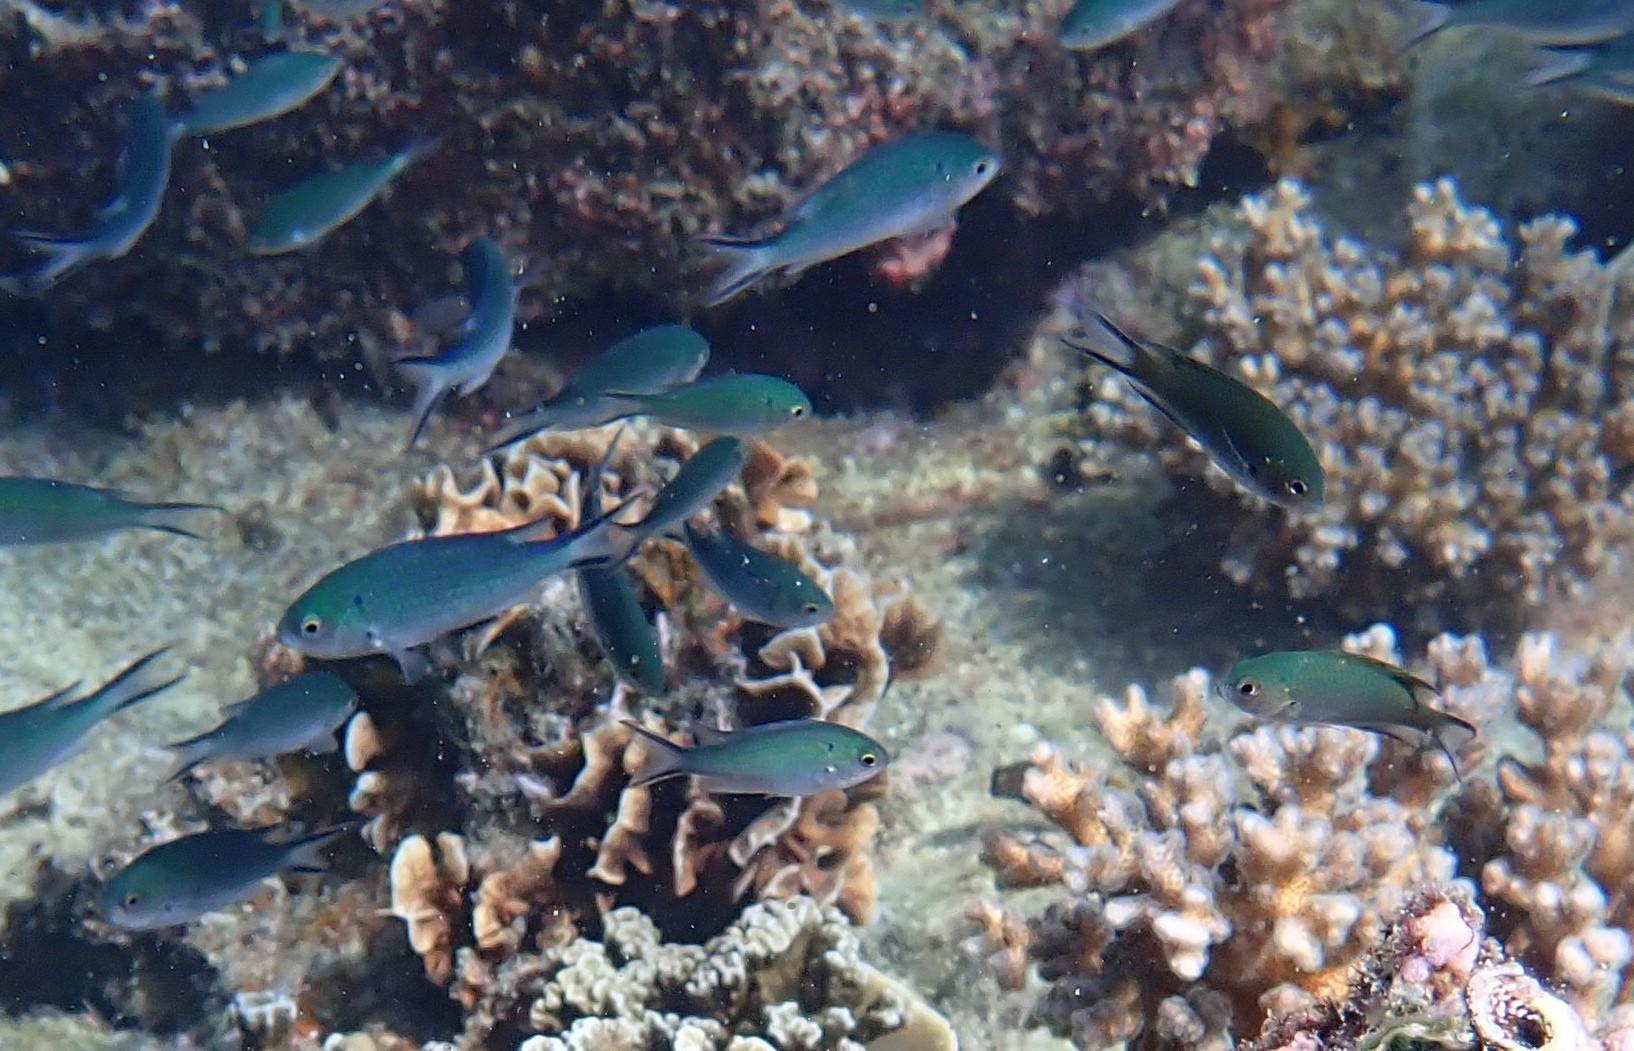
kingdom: Animalia
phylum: Chordata
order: Perciformes
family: Pomacentridae
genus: Neopomacentrus
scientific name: Neopomacentrus anabatoides
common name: Silver demoiselle
